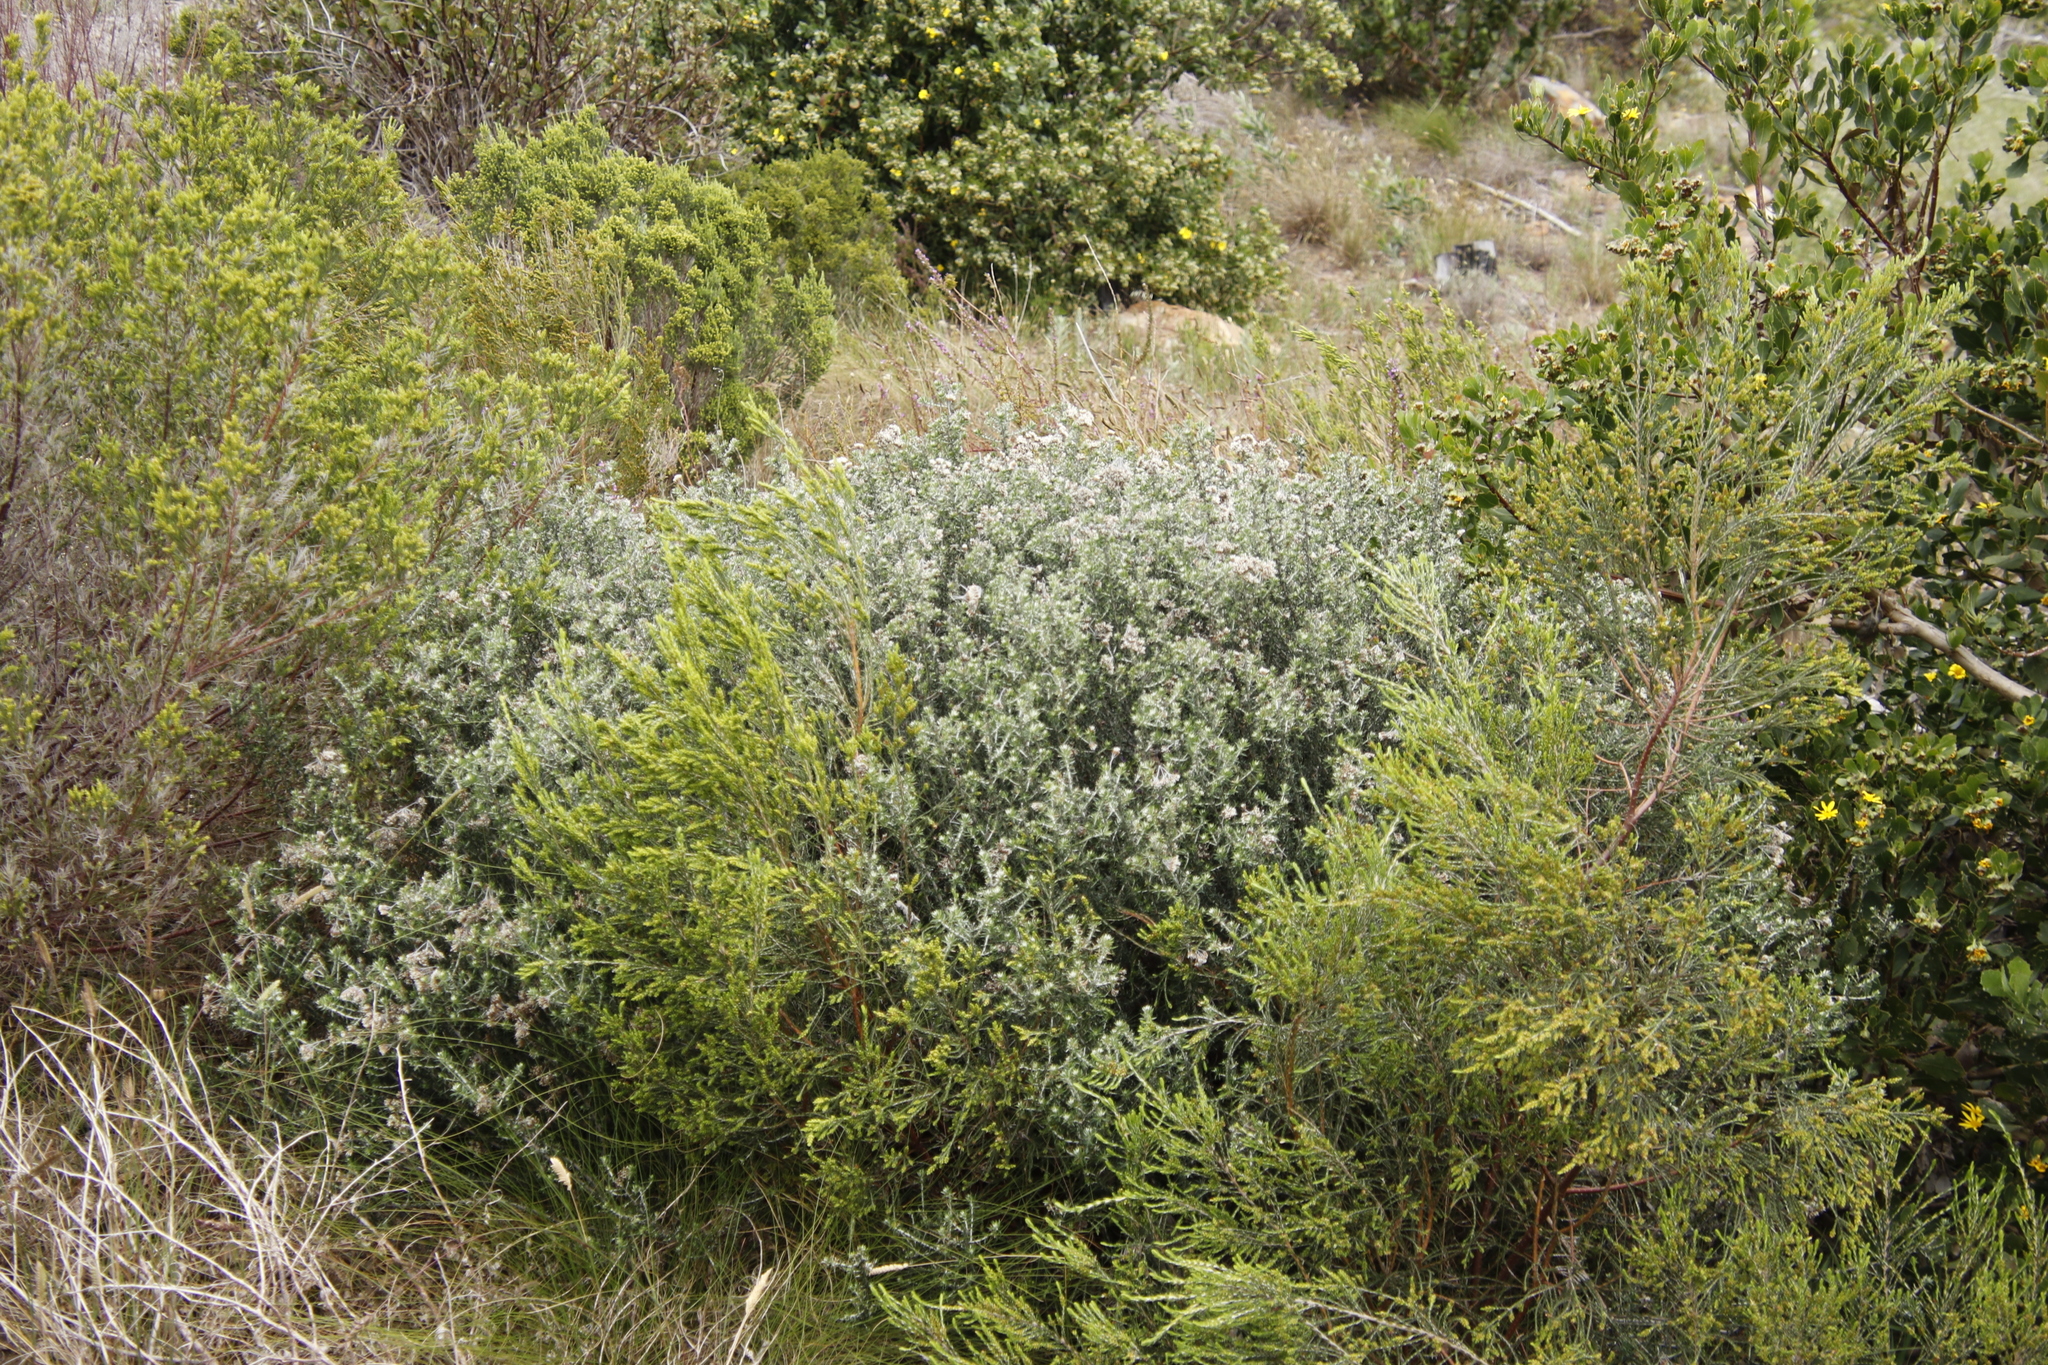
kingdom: Plantae
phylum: Tracheophyta
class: Magnoliopsida
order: Asterales
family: Asteraceae
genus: Metalasia
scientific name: Metalasia densa
